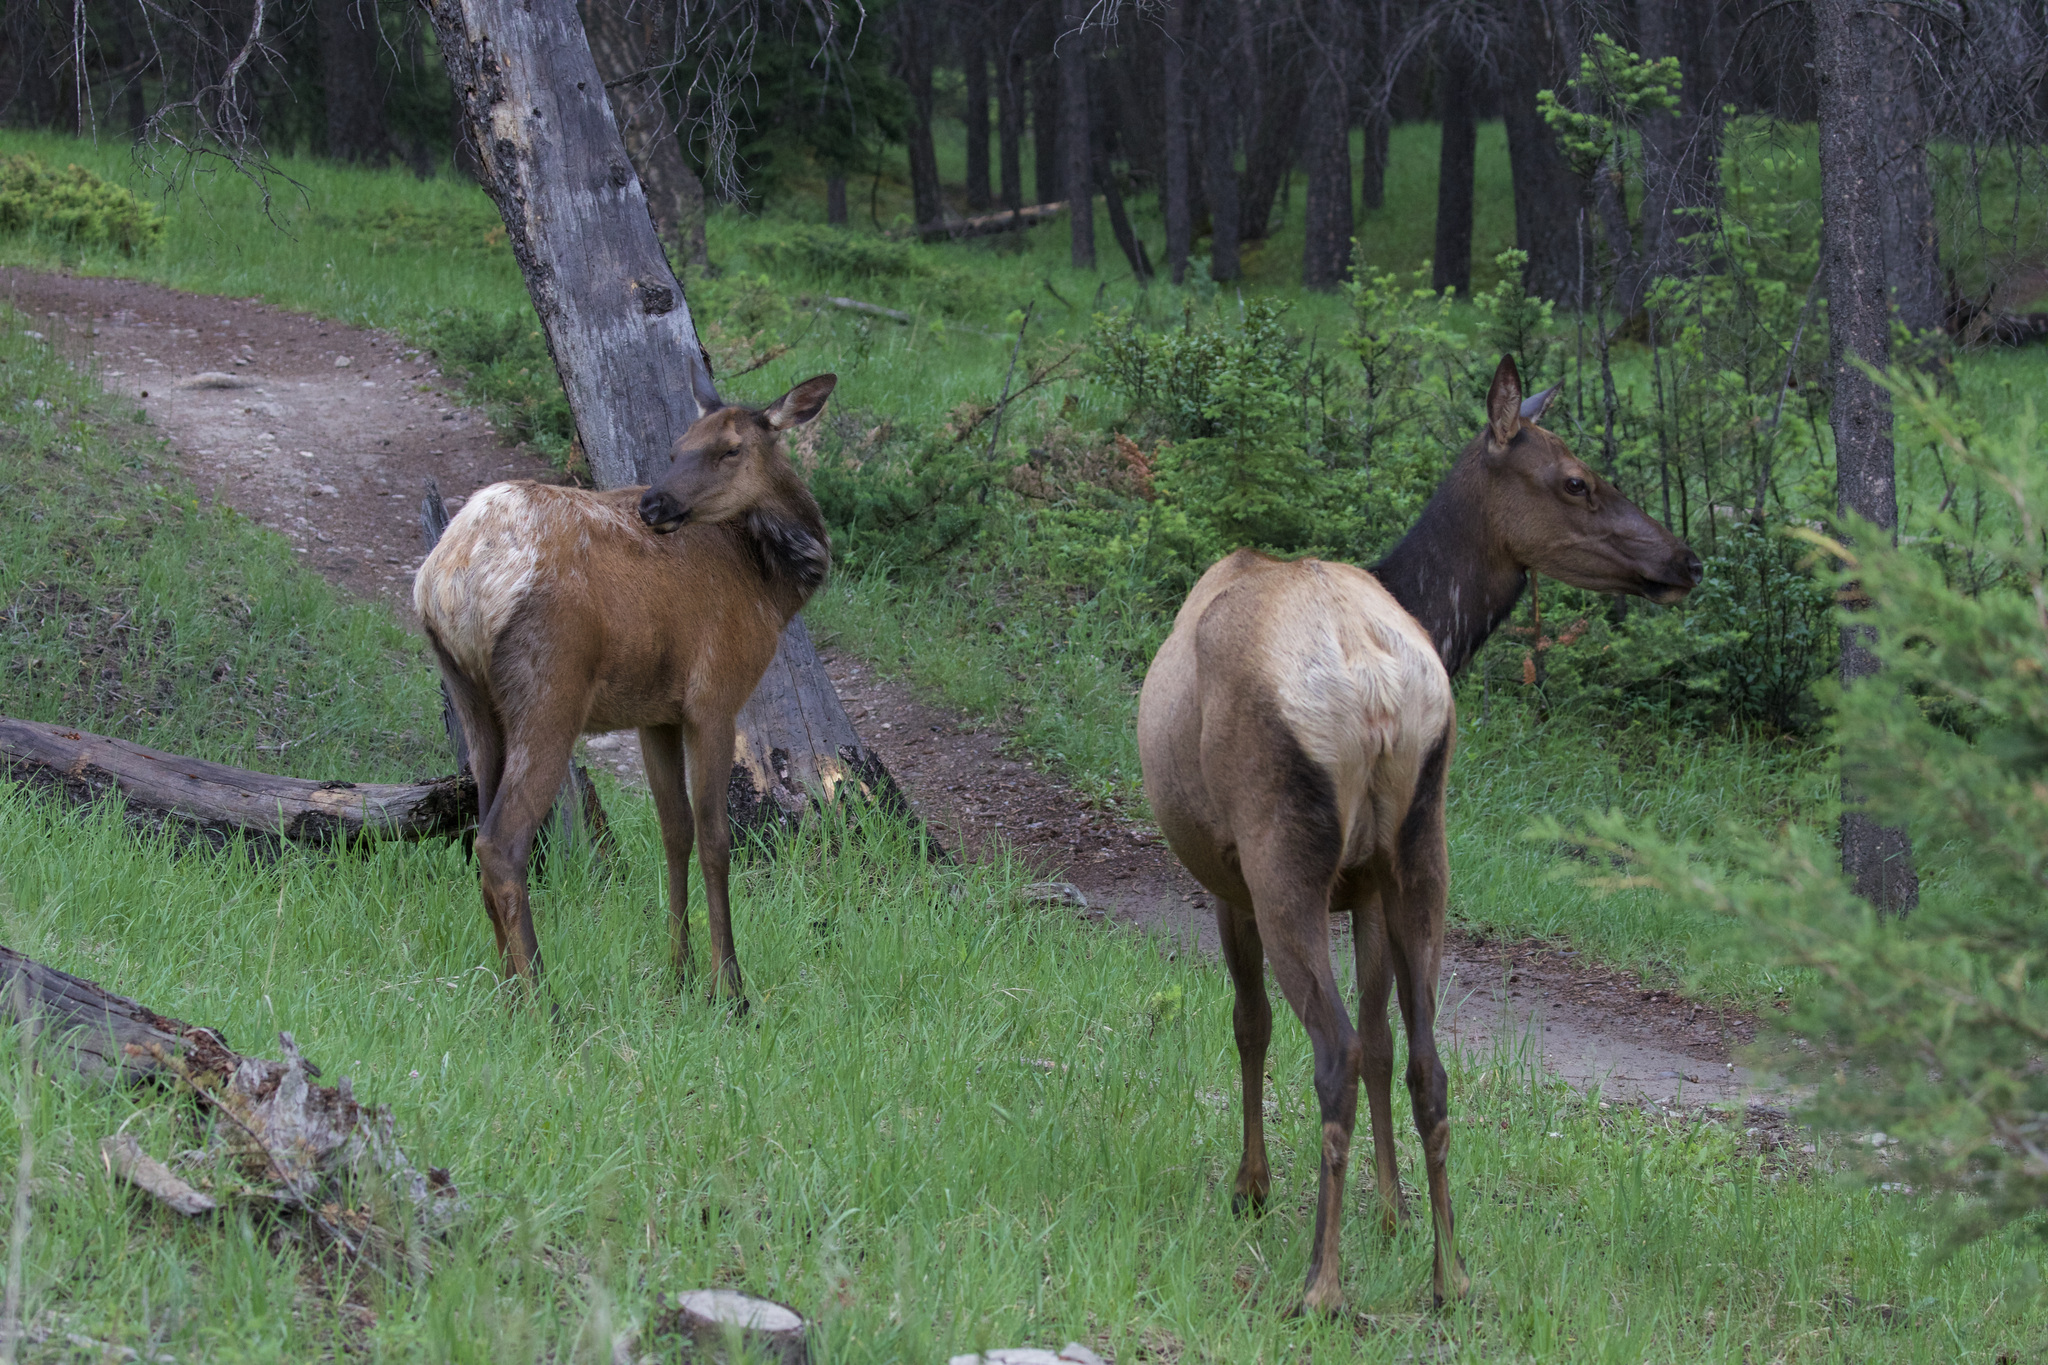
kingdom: Animalia
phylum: Chordata
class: Mammalia
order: Artiodactyla
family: Cervidae
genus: Cervus
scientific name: Cervus elaphus
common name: Red deer
